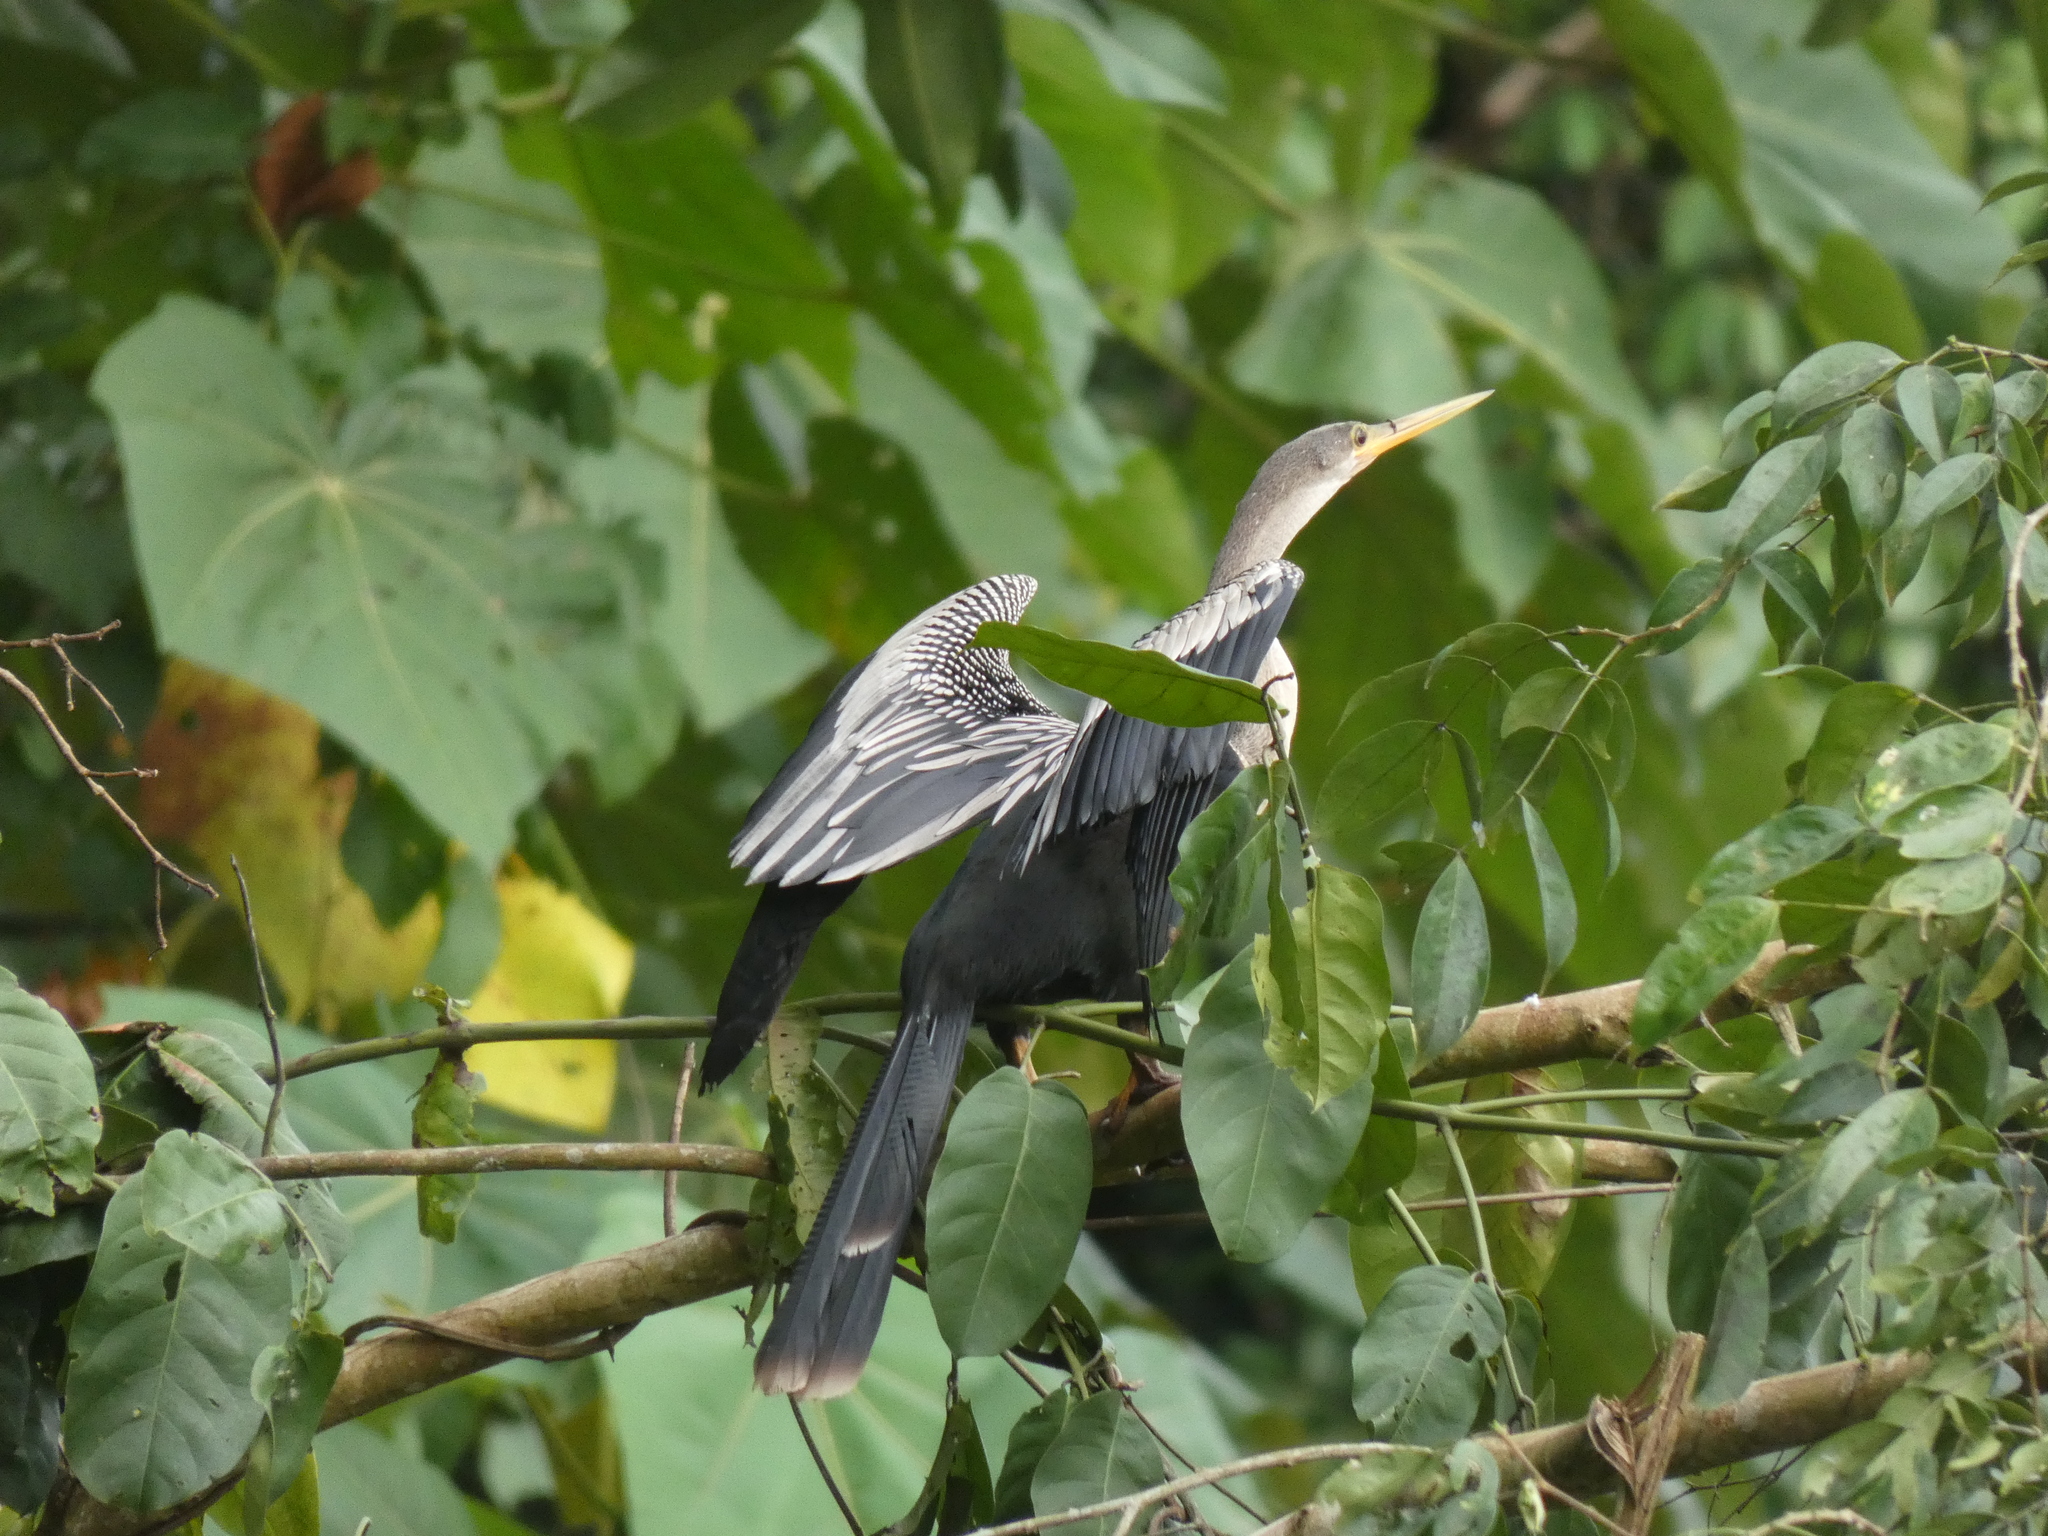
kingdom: Animalia
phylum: Chordata
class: Aves
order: Suliformes
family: Anhingidae
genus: Anhinga
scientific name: Anhinga anhinga
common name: Anhinga
